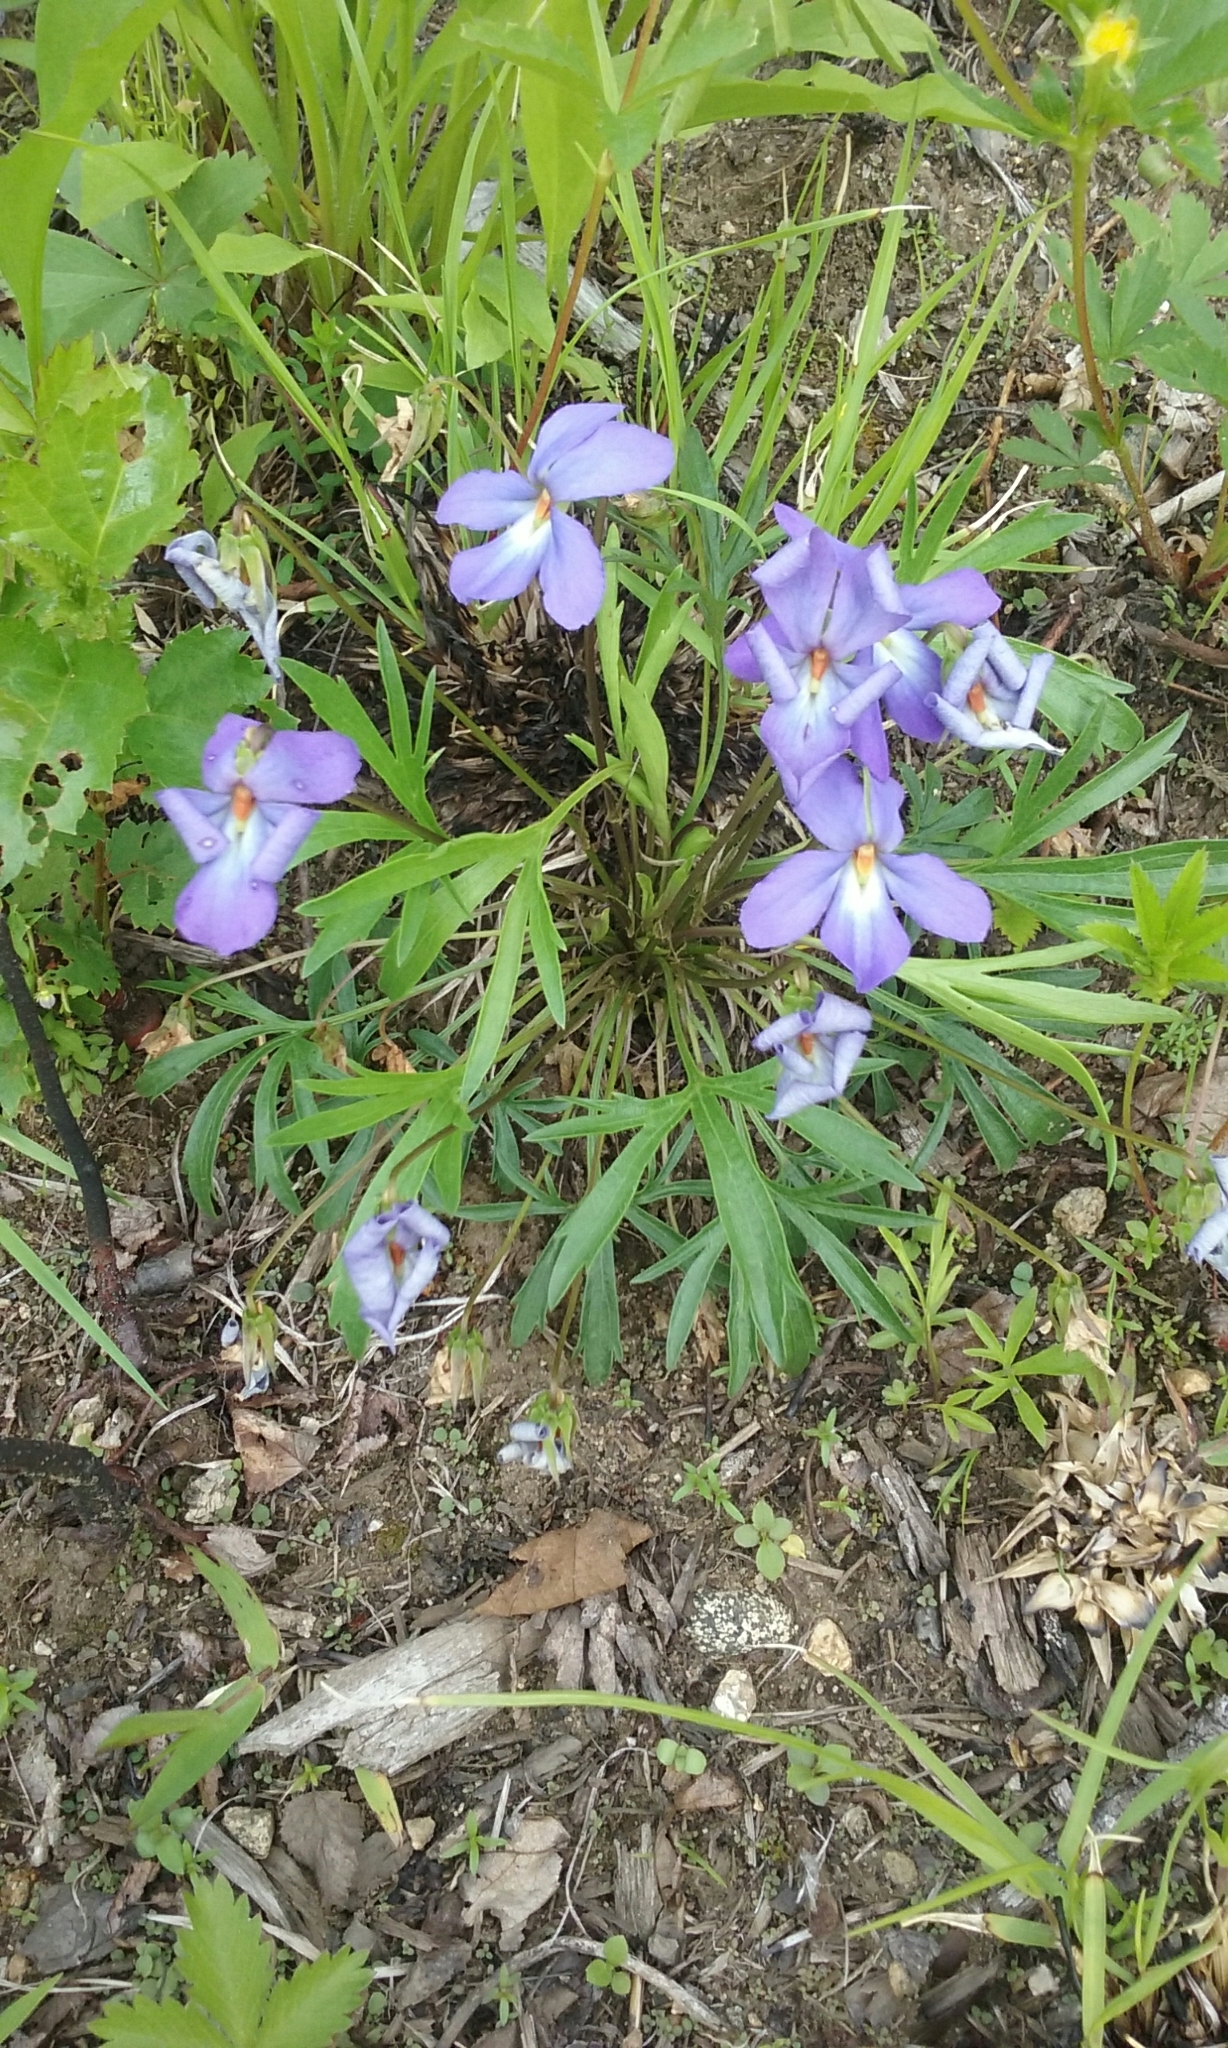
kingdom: Plantae
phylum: Tracheophyta
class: Magnoliopsida
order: Malpighiales
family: Violaceae
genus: Viola
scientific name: Viola pedata
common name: Pansy violet
